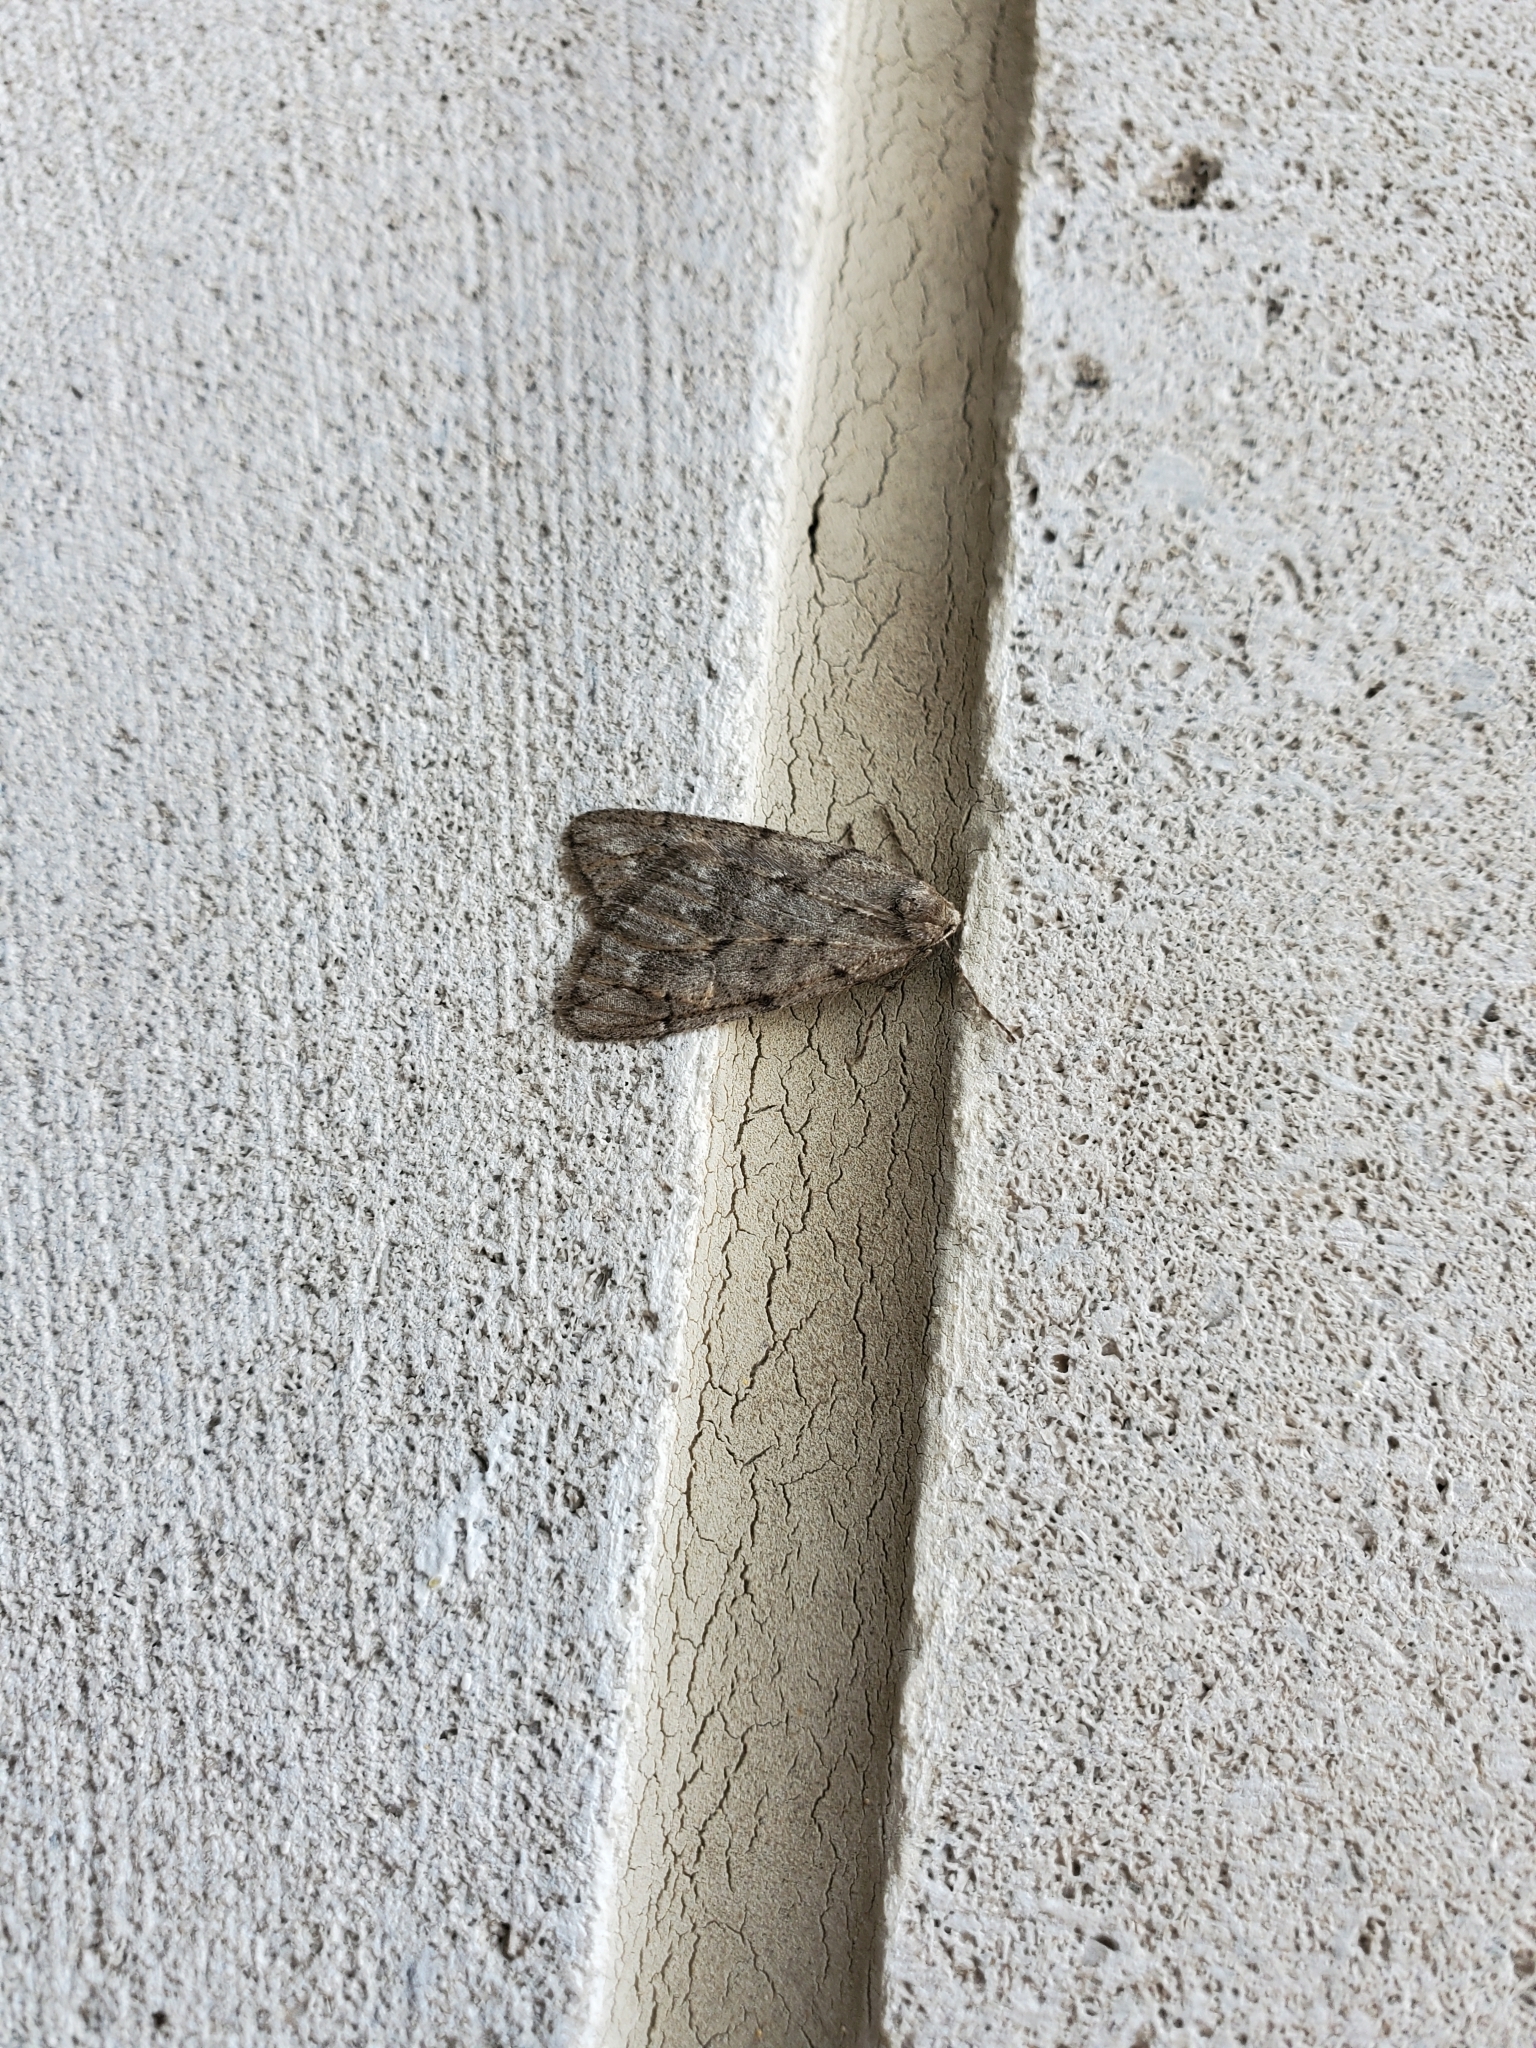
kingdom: Animalia
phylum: Arthropoda
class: Insecta
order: Lepidoptera
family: Geometridae
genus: Paleacrita
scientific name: Paleacrita vernata
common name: Spring cankerworm
